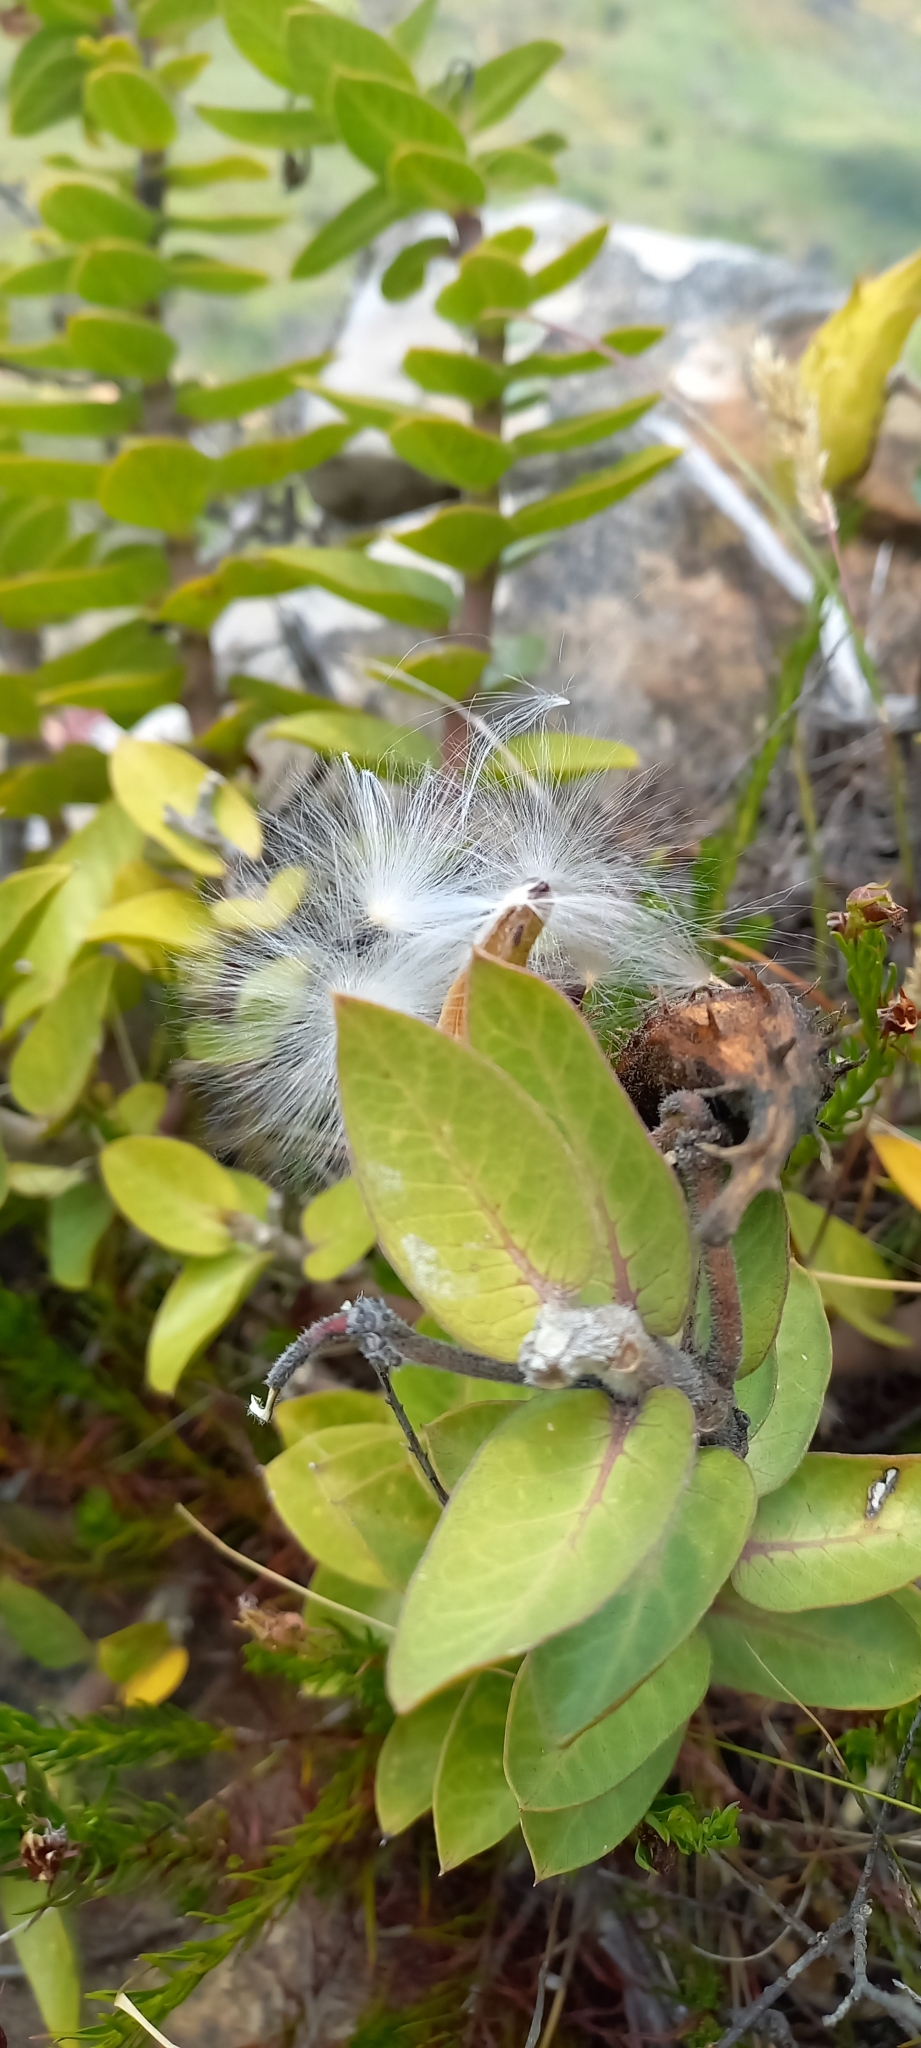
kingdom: Plantae
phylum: Tracheophyta
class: Magnoliopsida
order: Gentianales
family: Apocynaceae
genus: Gomphocarpus
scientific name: Gomphocarpus cancellatus
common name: Wild cotton
